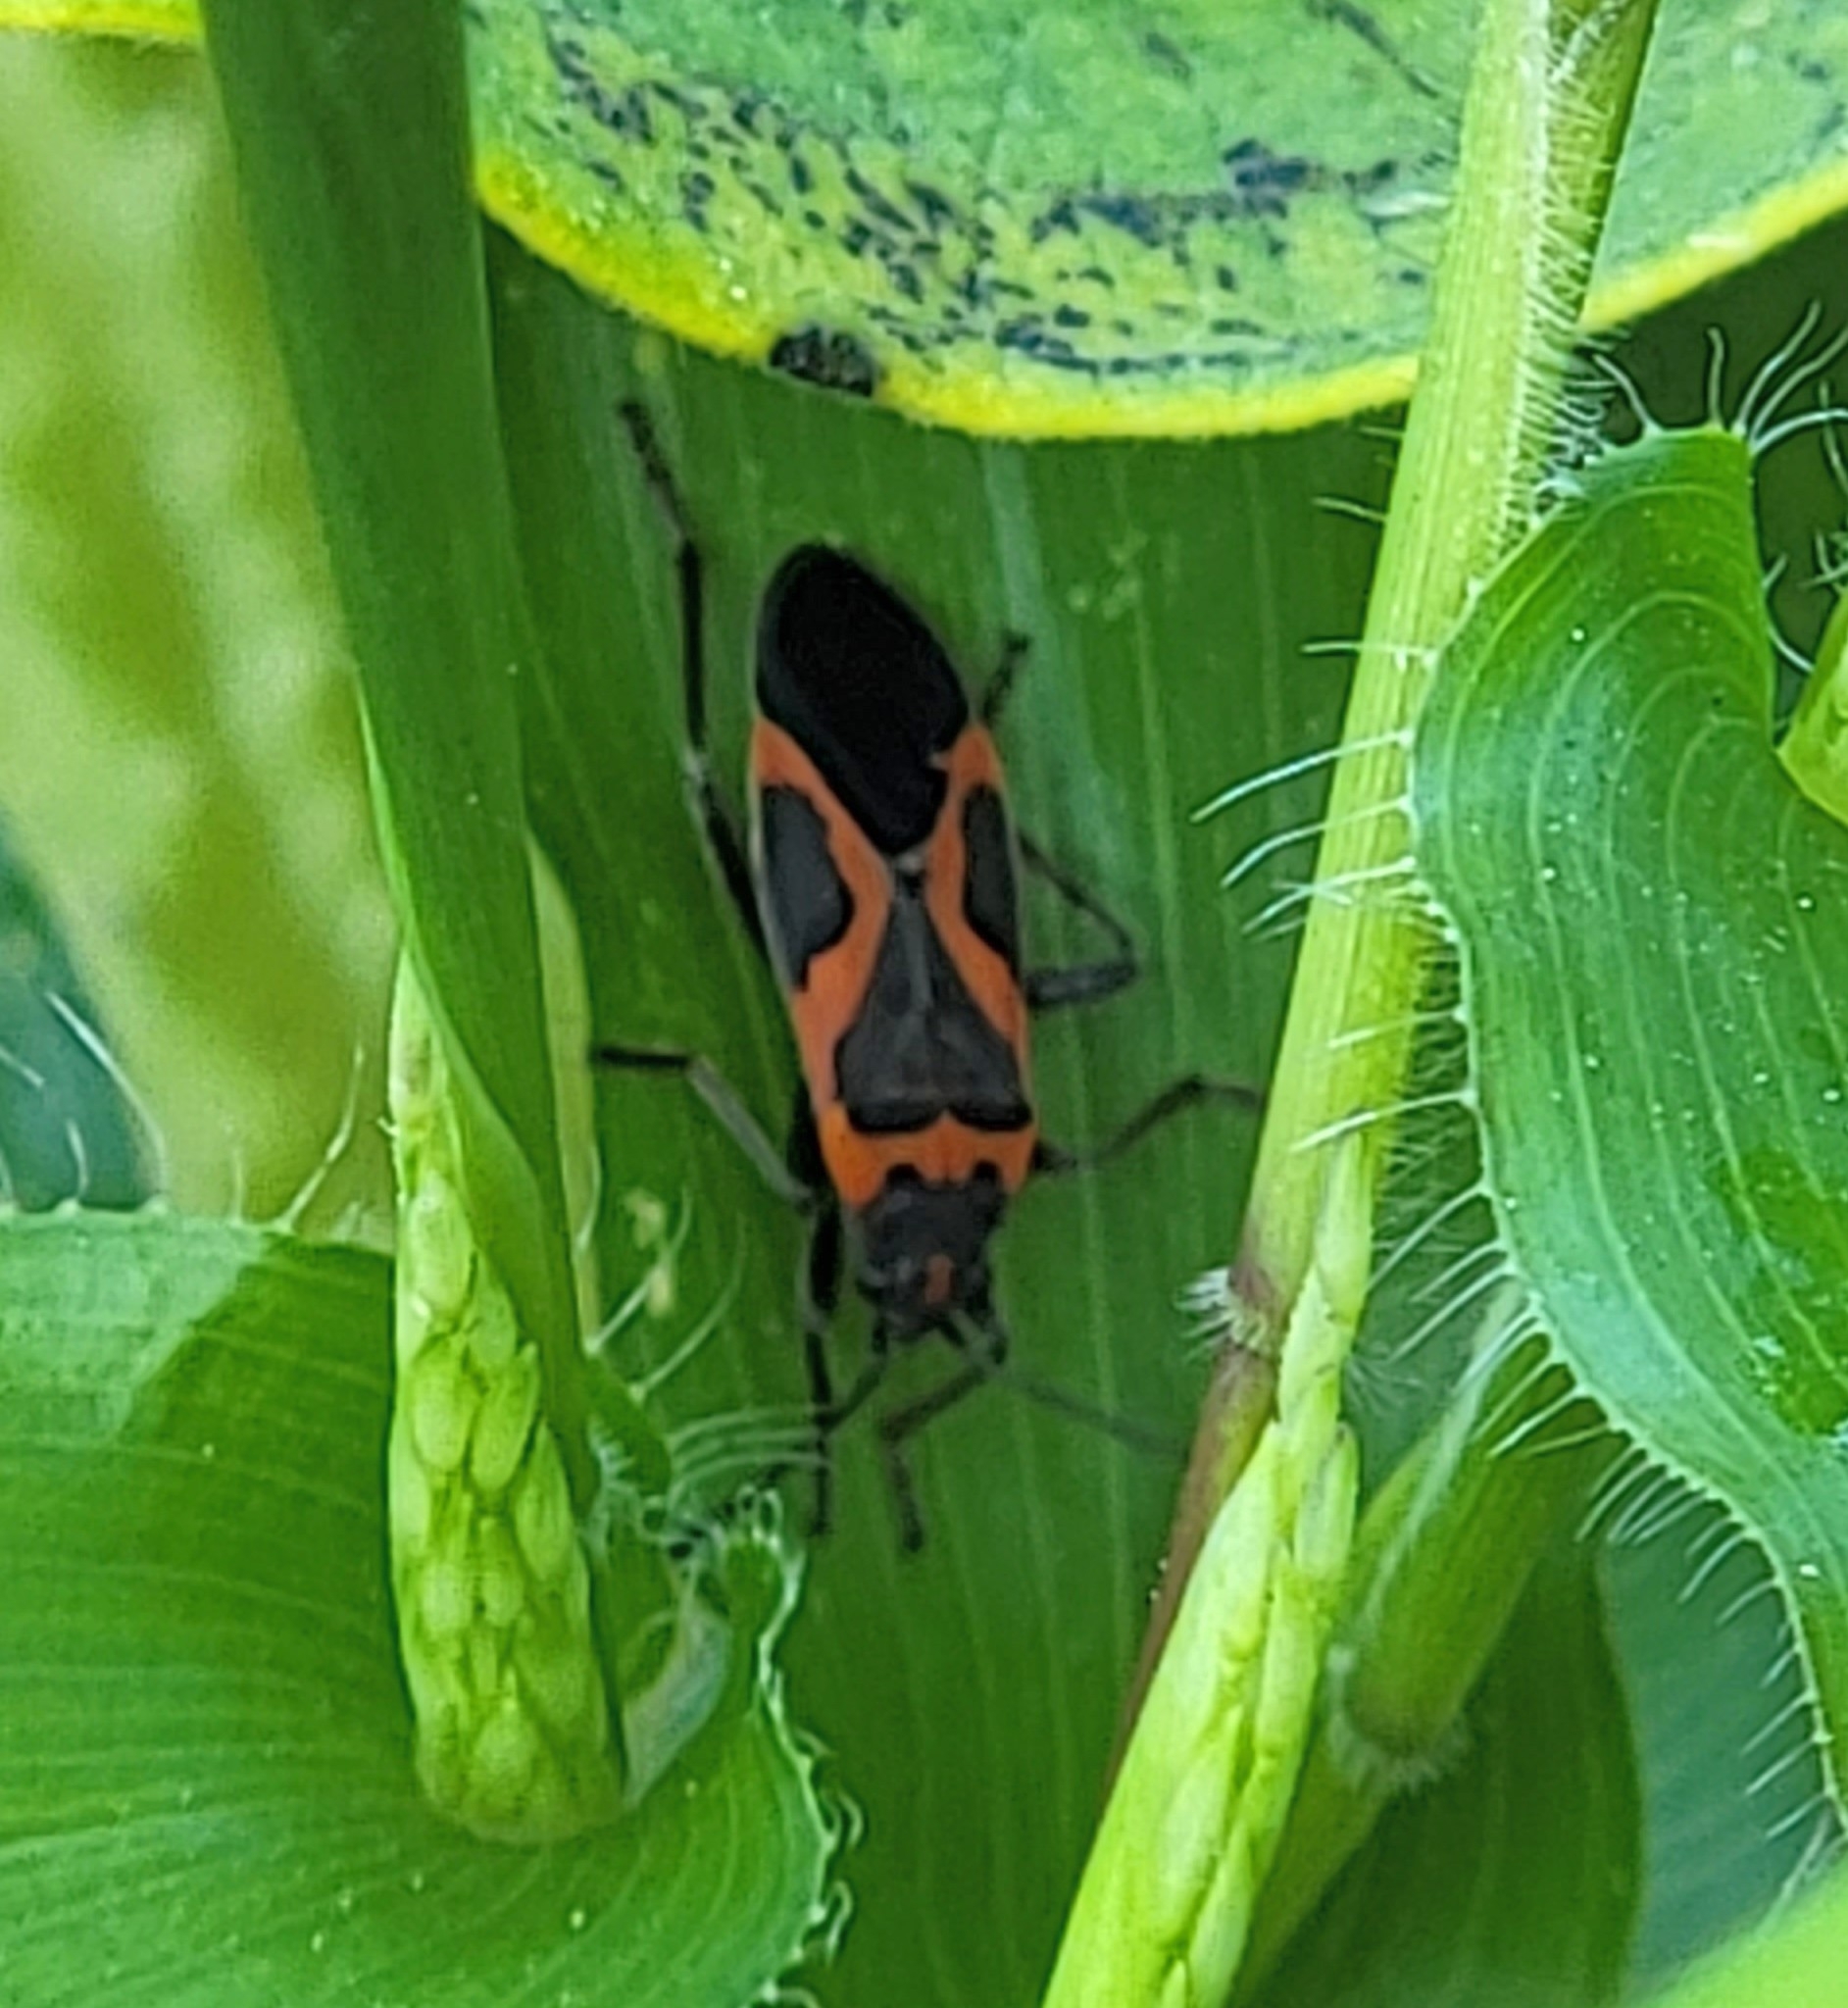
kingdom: Animalia
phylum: Arthropoda
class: Insecta
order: Hemiptera
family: Lygaeidae
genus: Lygaeus
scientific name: Lygaeus kalmii
